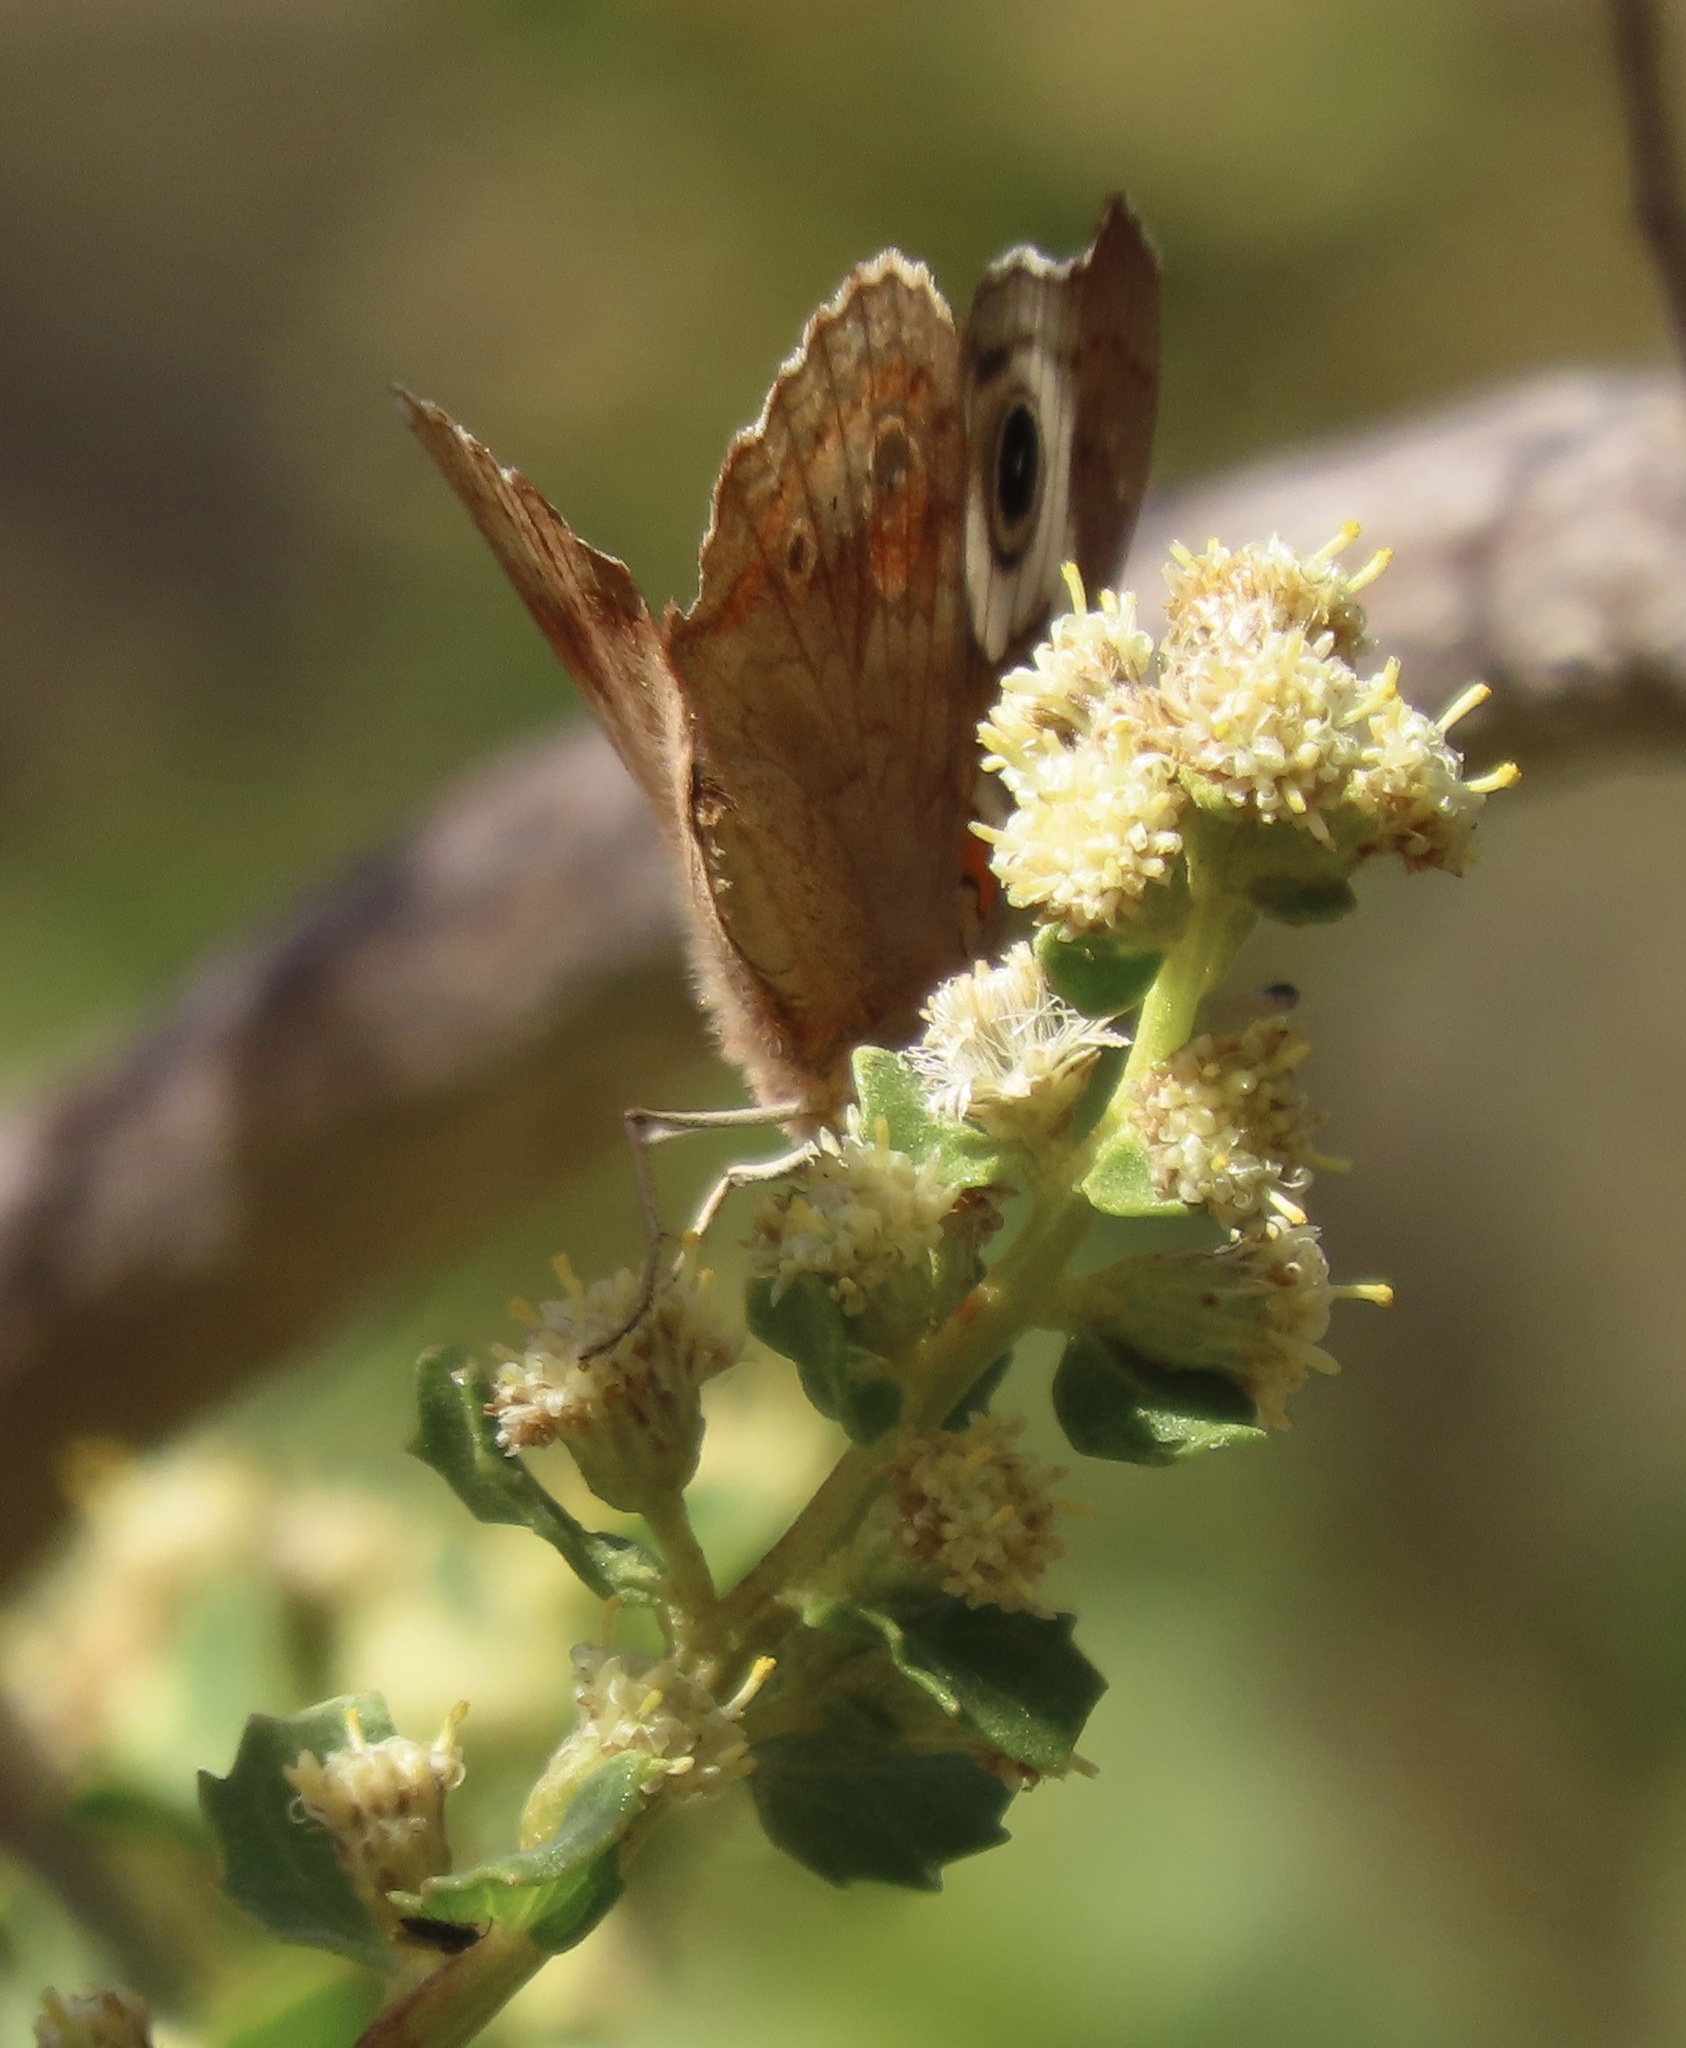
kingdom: Animalia
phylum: Arthropoda
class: Insecta
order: Lepidoptera
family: Nymphalidae
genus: Junonia
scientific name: Junonia grisea
